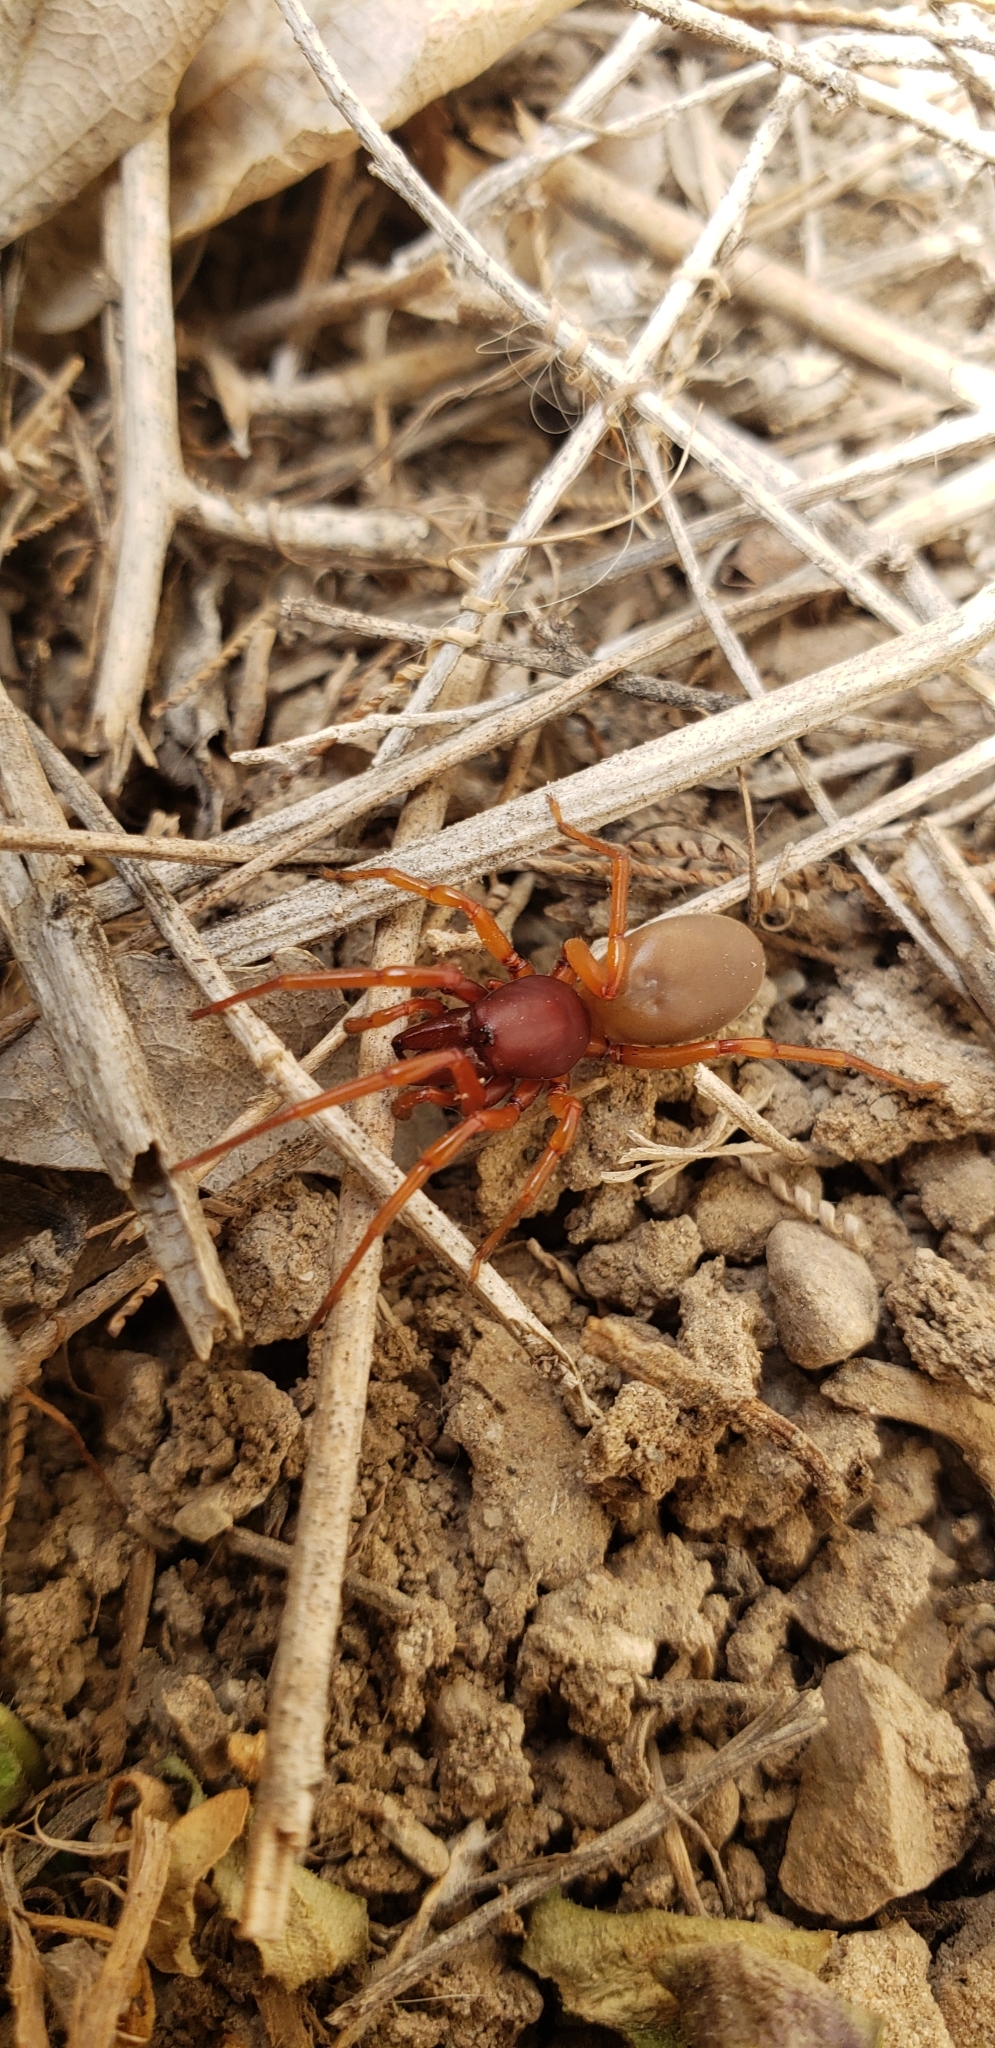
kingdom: Animalia
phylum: Arthropoda
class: Arachnida
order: Araneae
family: Dysderidae
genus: Dysdera
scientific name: Dysdera crocata
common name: Woodlouse spider
